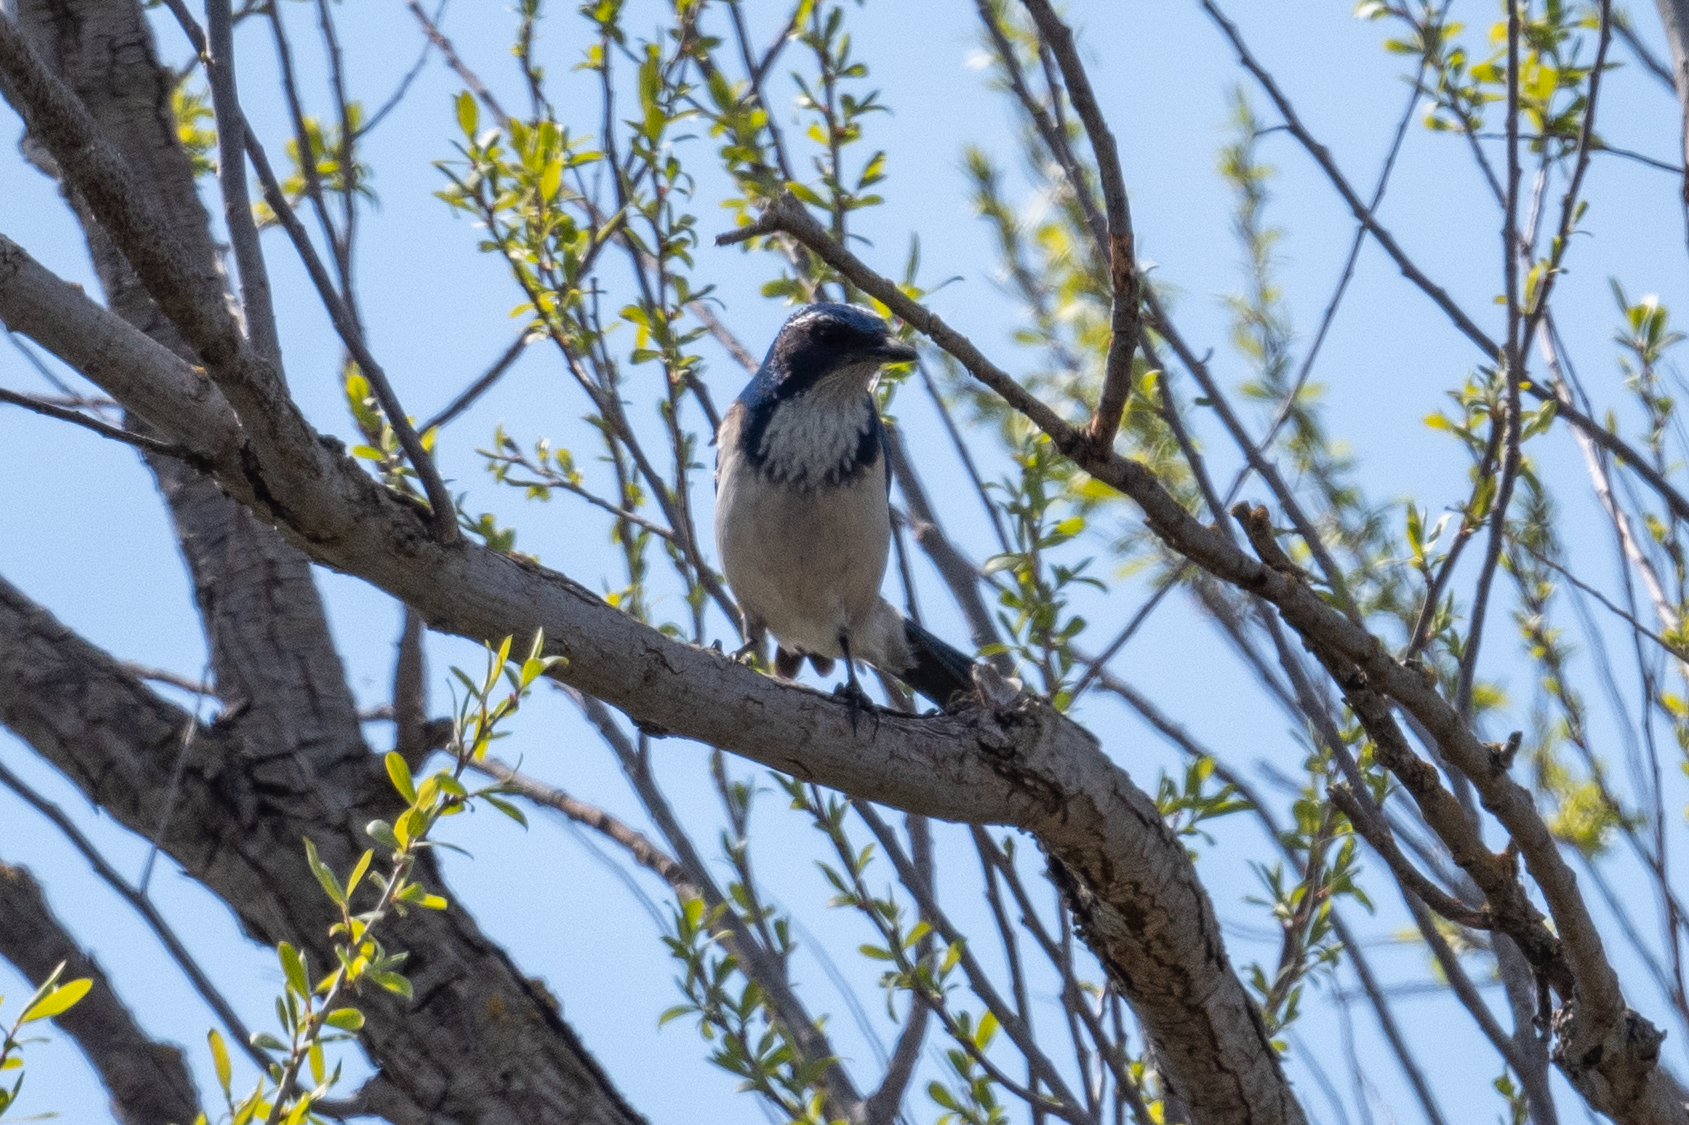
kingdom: Animalia
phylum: Chordata
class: Aves
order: Passeriformes
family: Corvidae
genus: Aphelocoma
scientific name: Aphelocoma californica
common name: California scrub-jay
